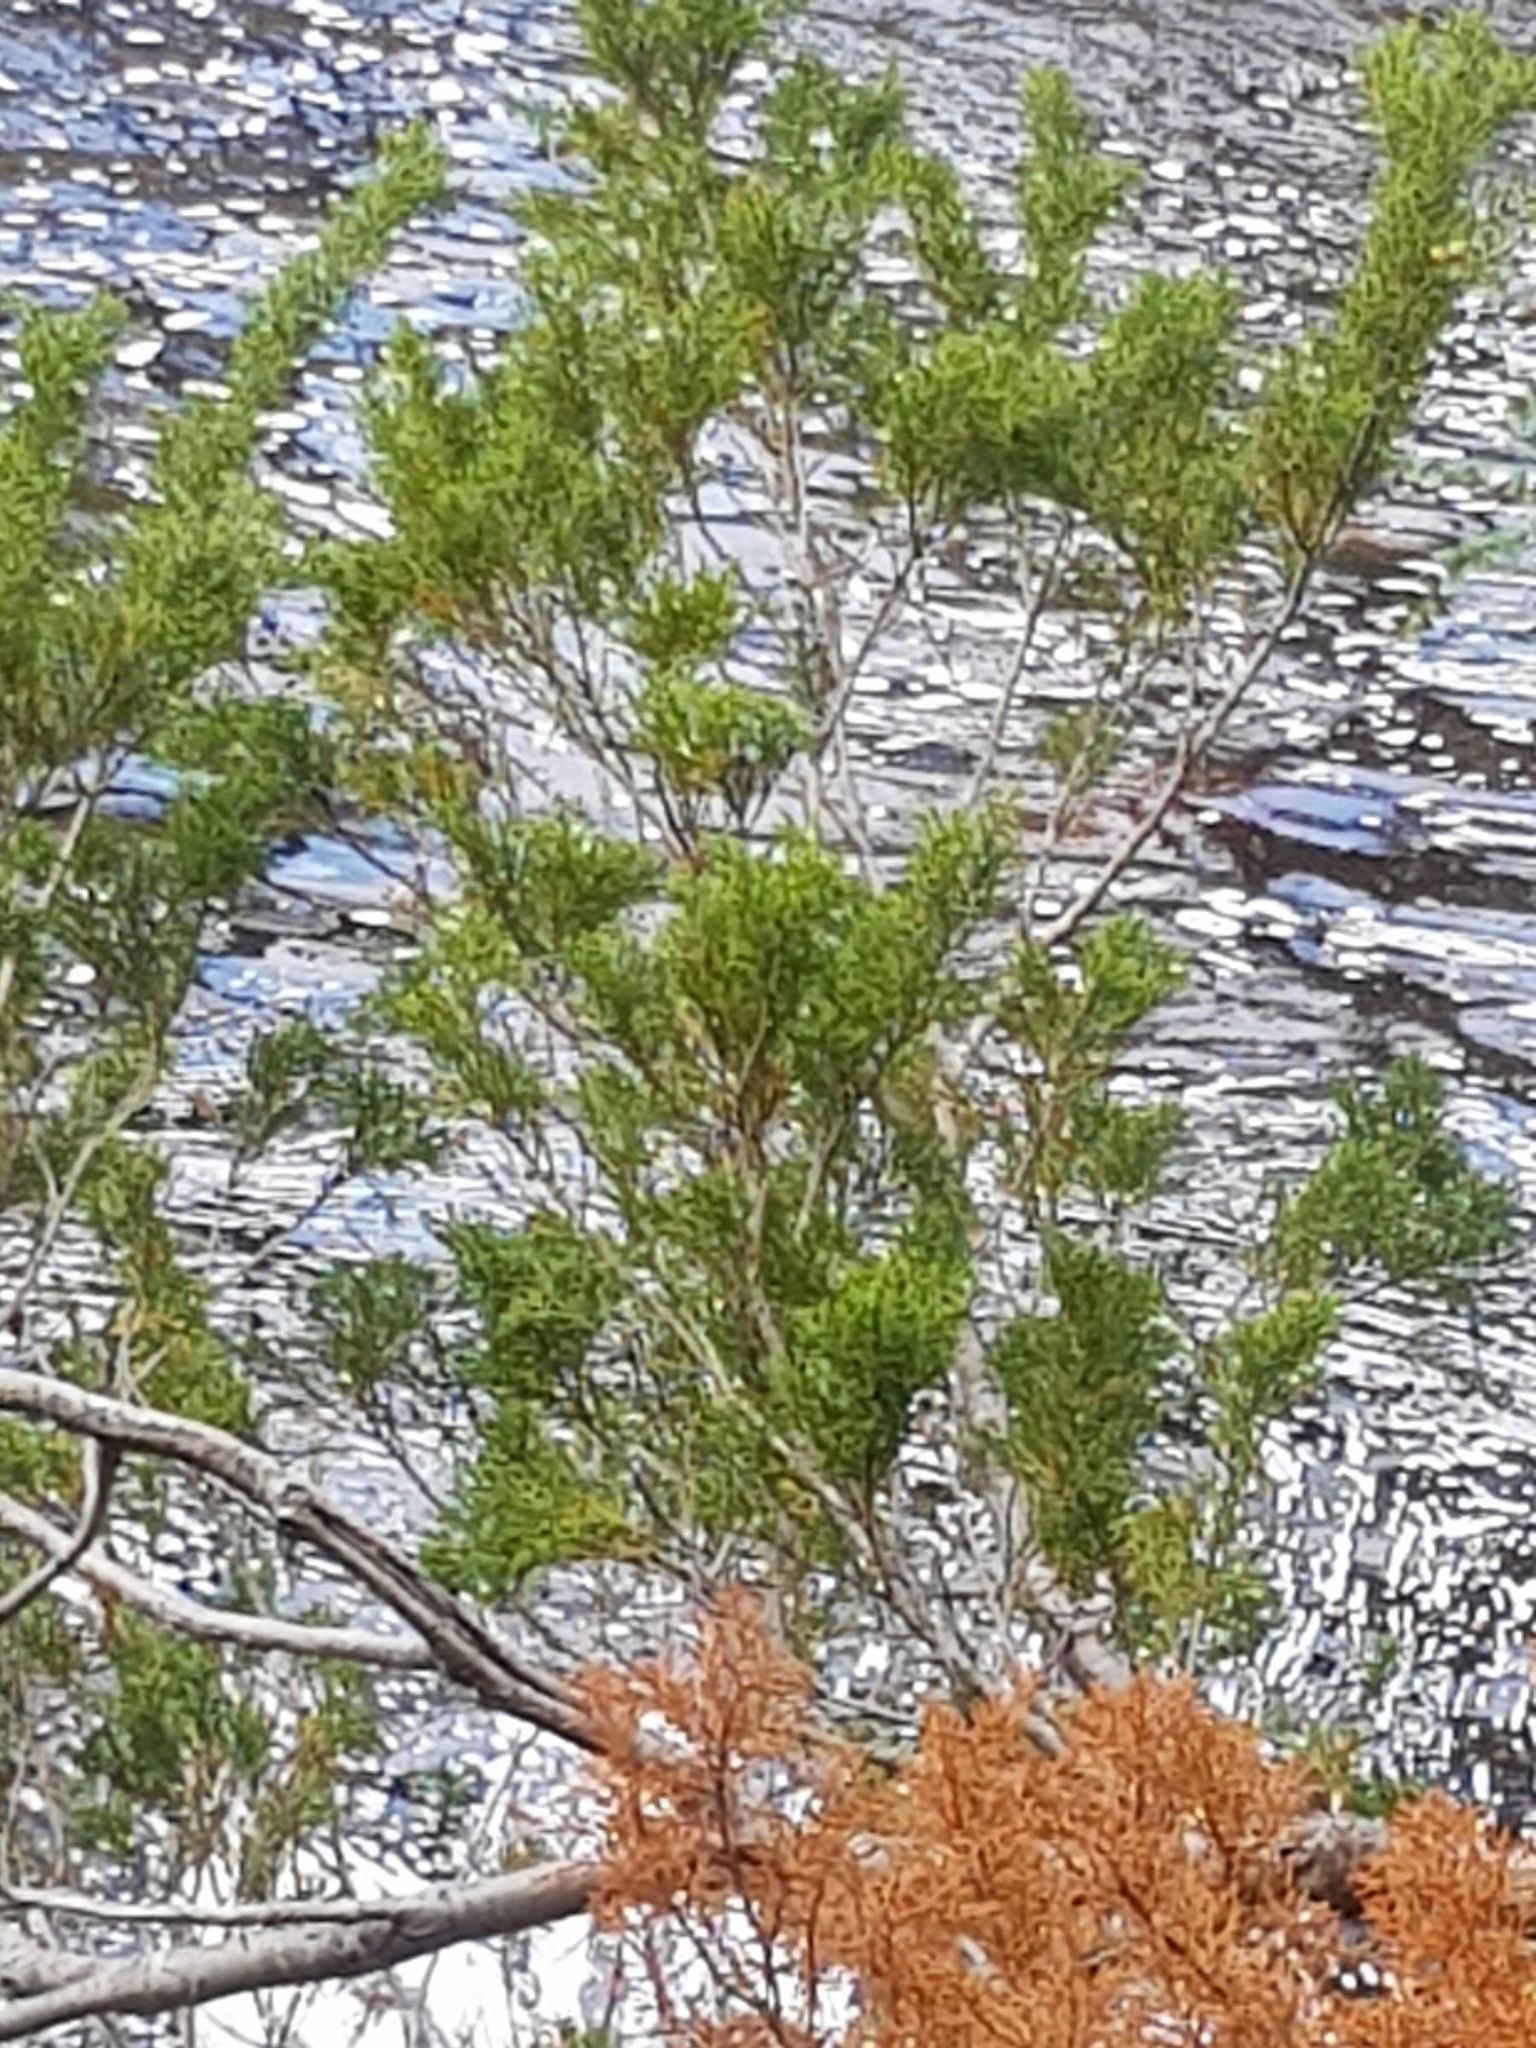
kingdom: Plantae
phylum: Tracheophyta
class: Pinopsida
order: Pinales
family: Podocarpaceae
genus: Lagarostrobos
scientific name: Lagarostrobos franklinii
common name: Huon pine
